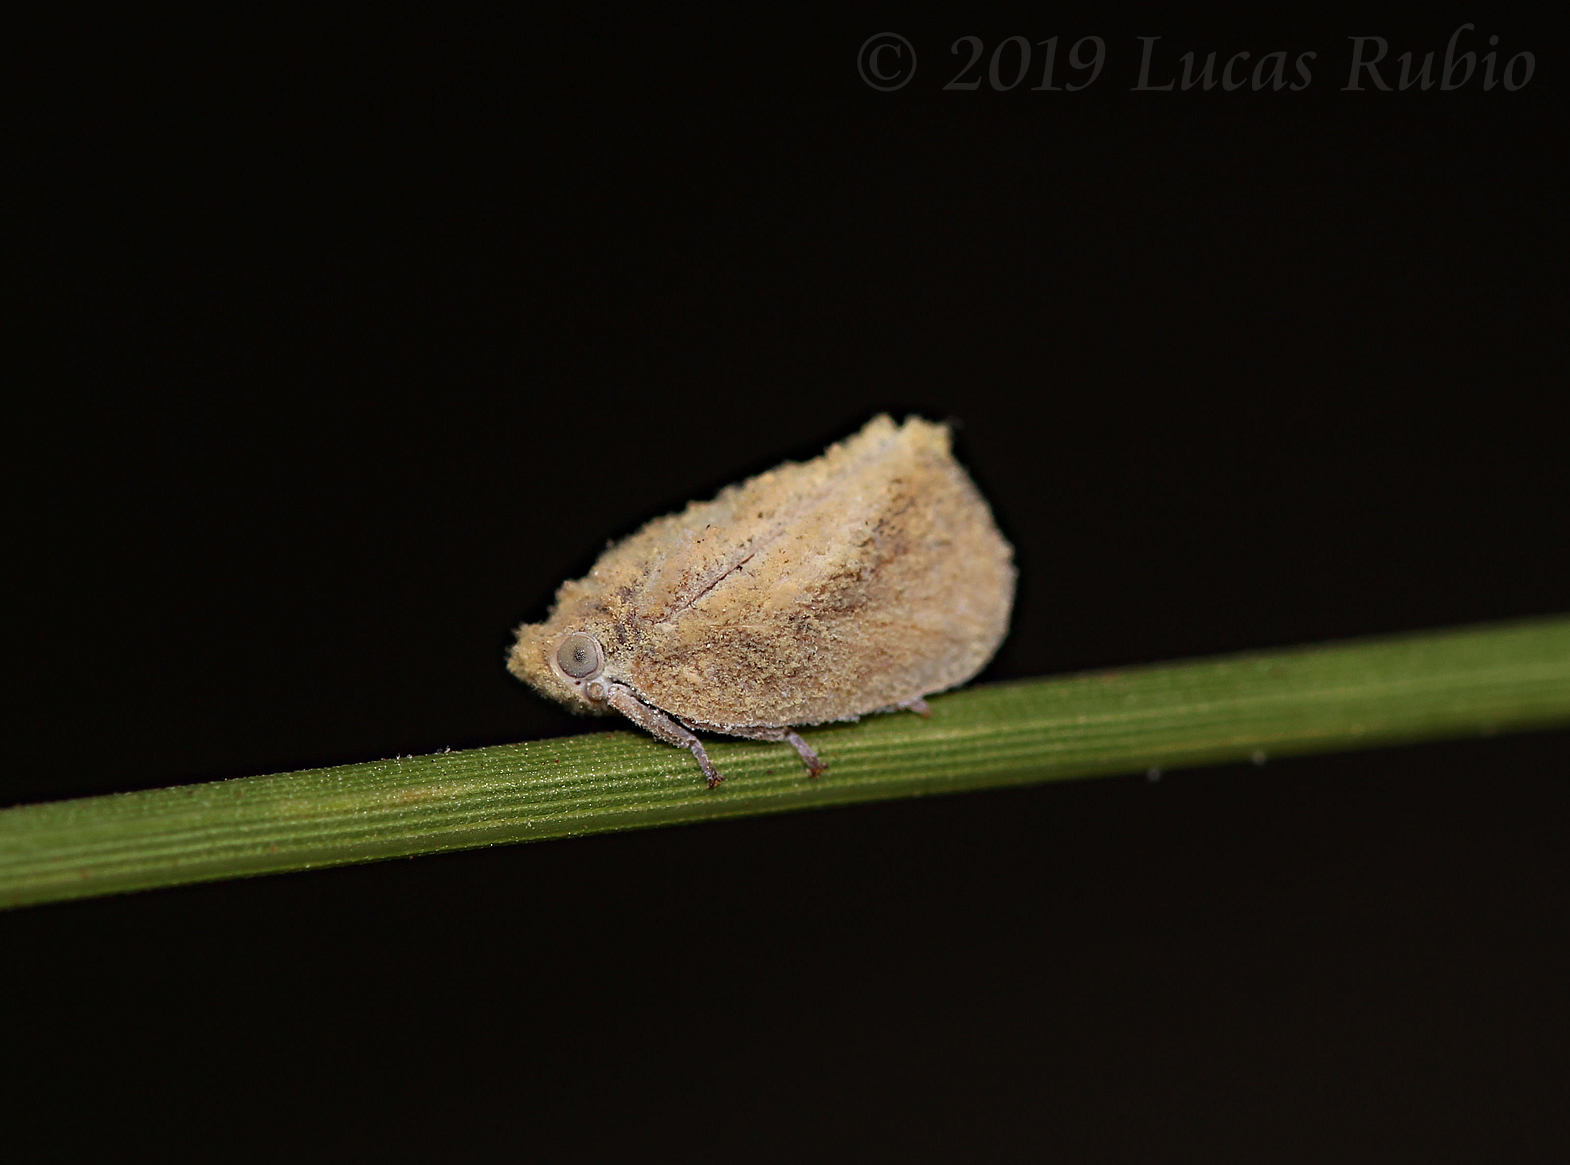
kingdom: Animalia
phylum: Arthropoda
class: Insecta
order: Hemiptera
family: Flatidae
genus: Byllis
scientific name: Byllis subgranulata
